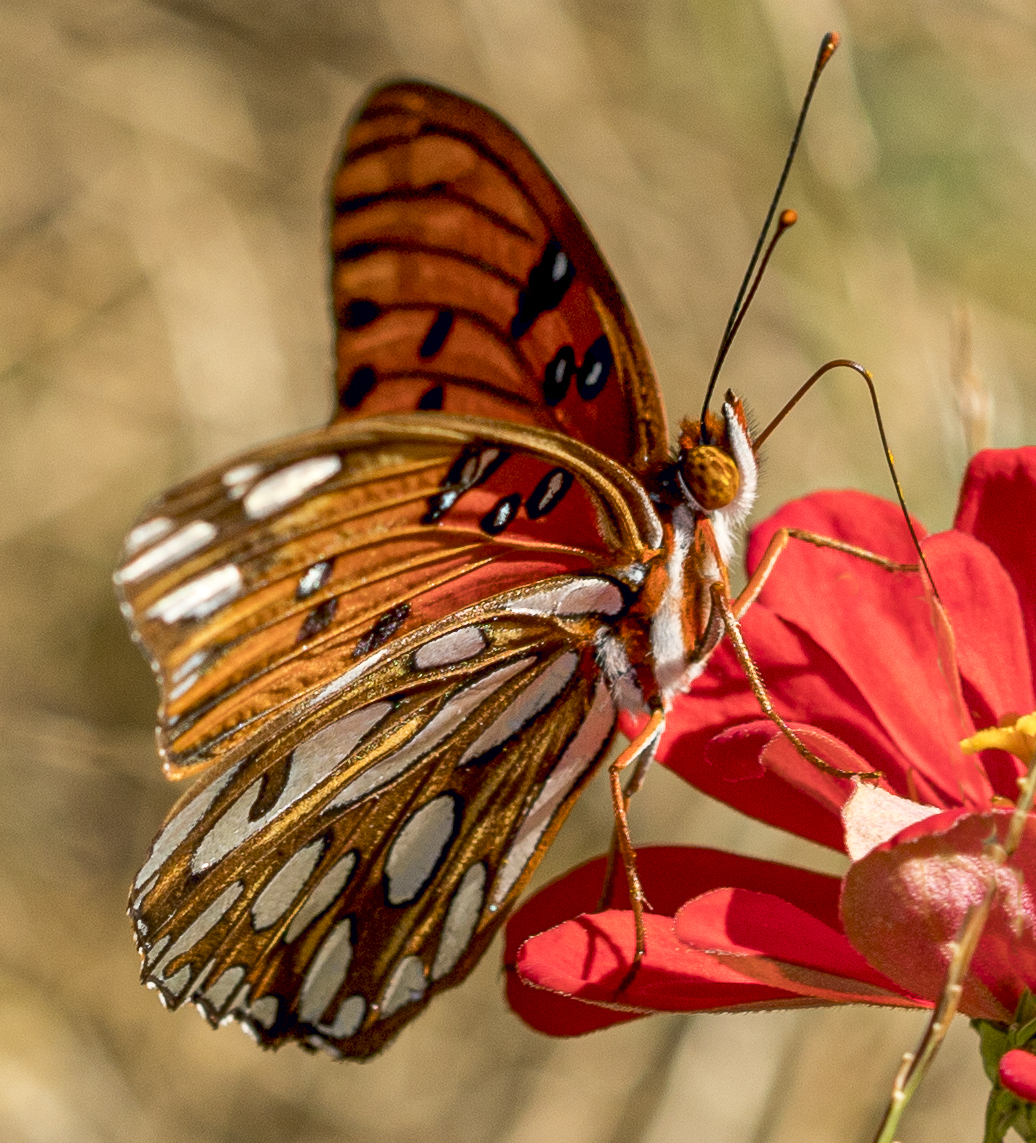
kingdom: Animalia
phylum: Arthropoda
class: Insecta
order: Lepidoptera
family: Nymphalidae
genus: Dione
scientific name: Dione vanillae
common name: Gulf fritillary
